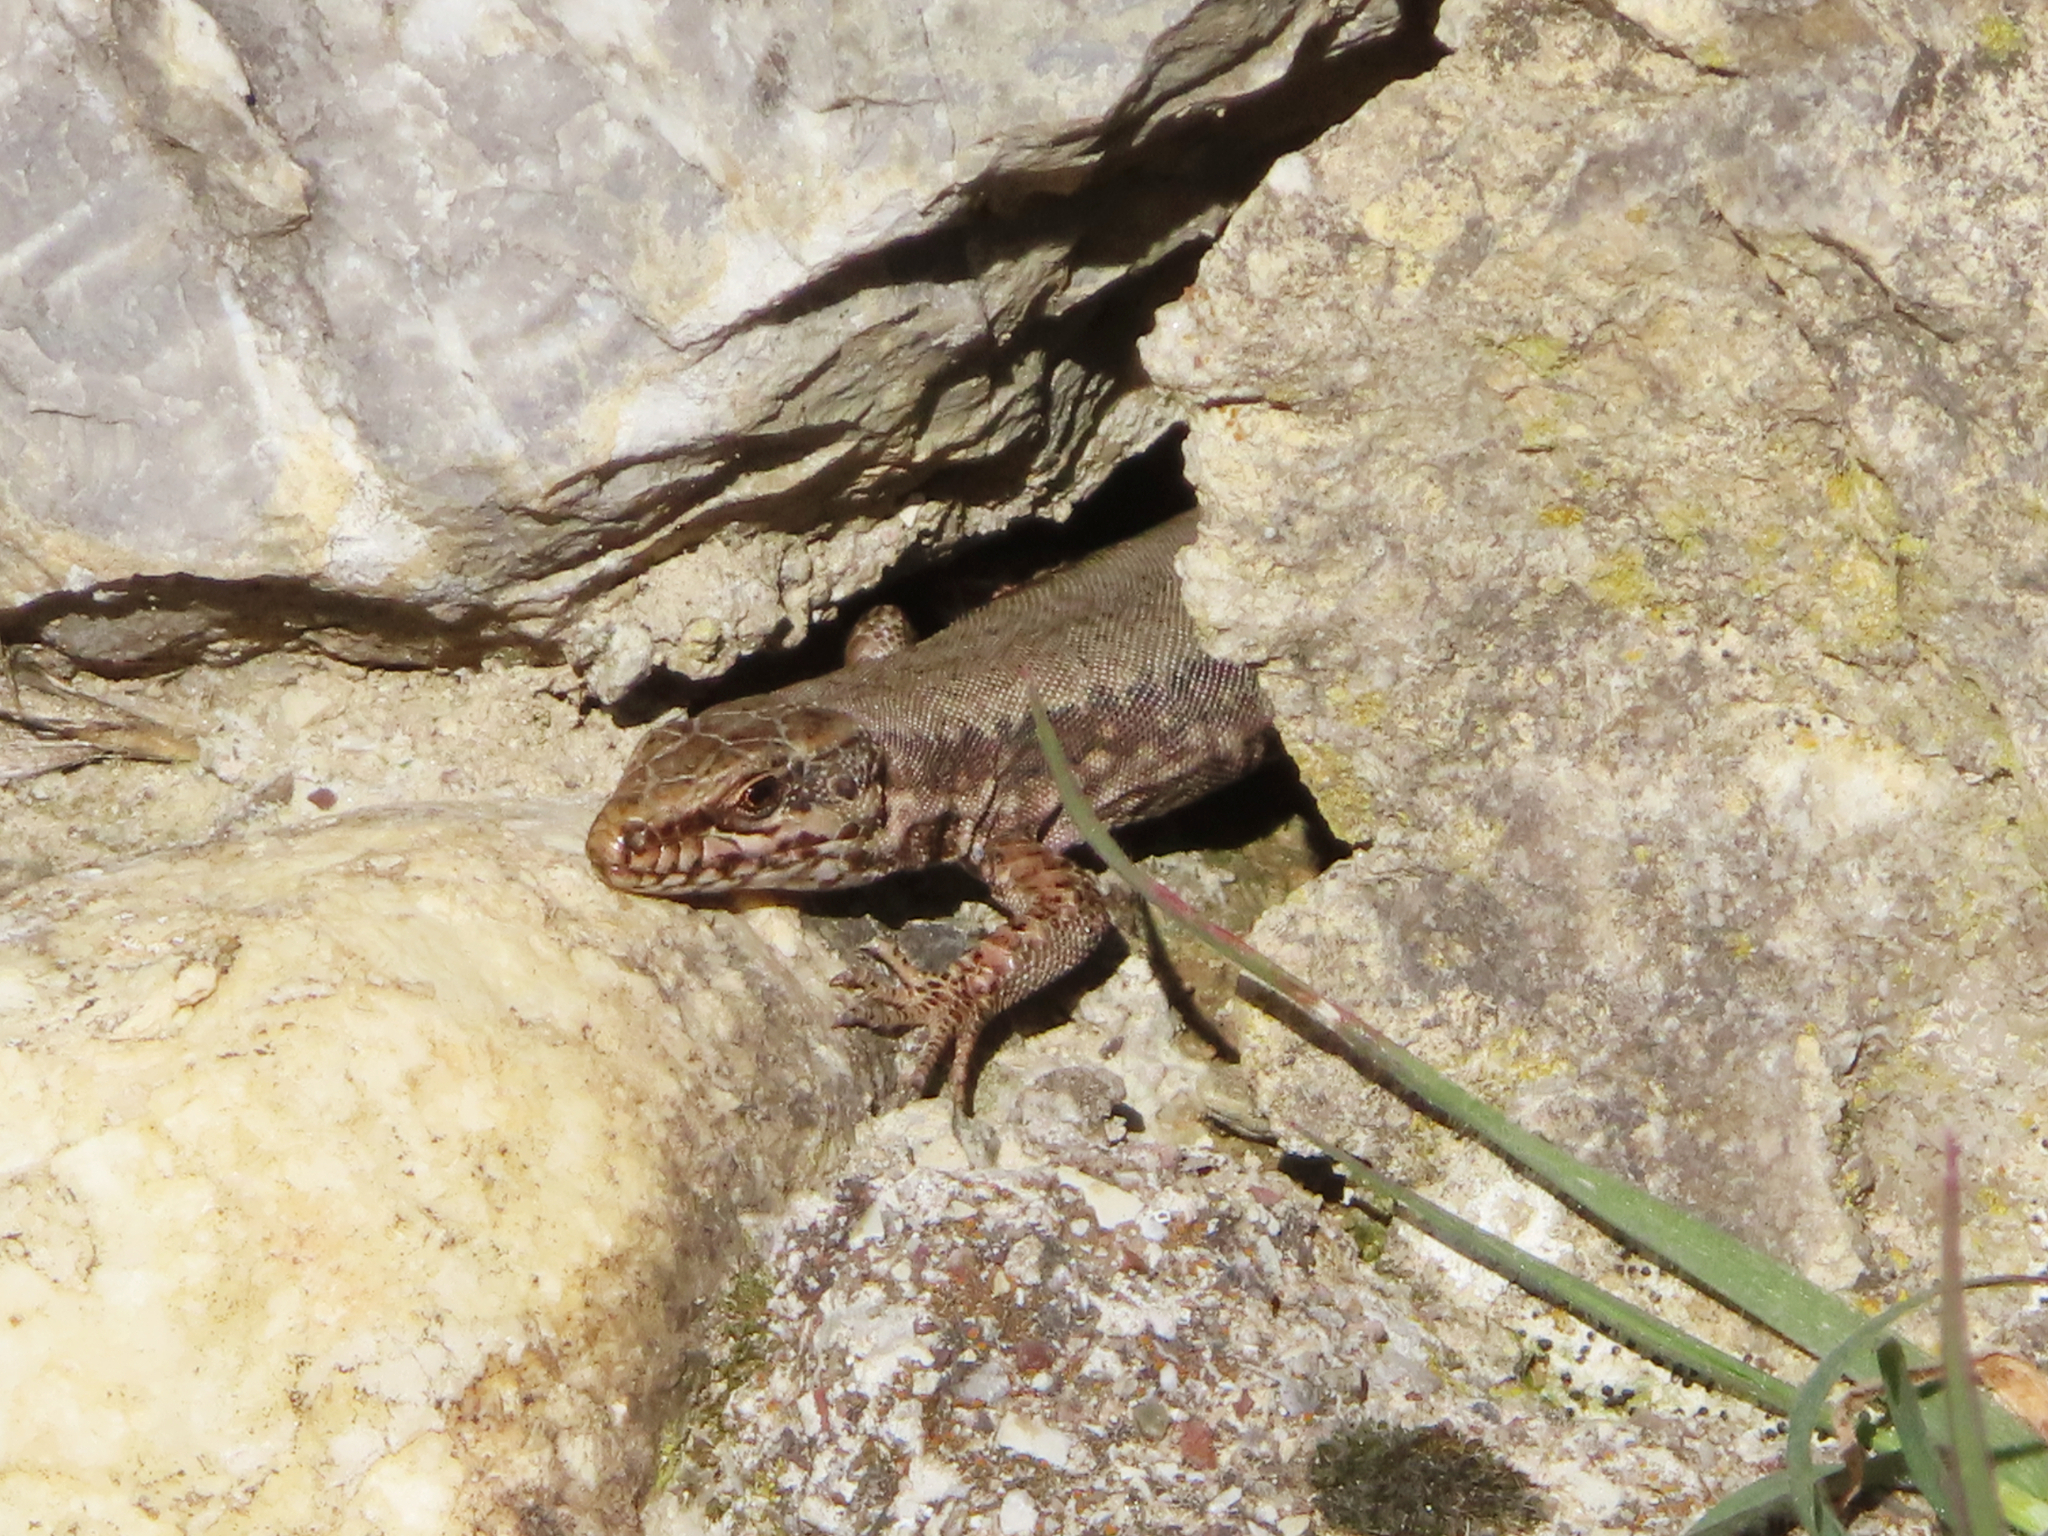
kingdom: Animalia
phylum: Chordata
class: Squamata
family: Lacertidae
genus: Podarcis
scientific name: Podarcis muralis
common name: Common wall lizard
